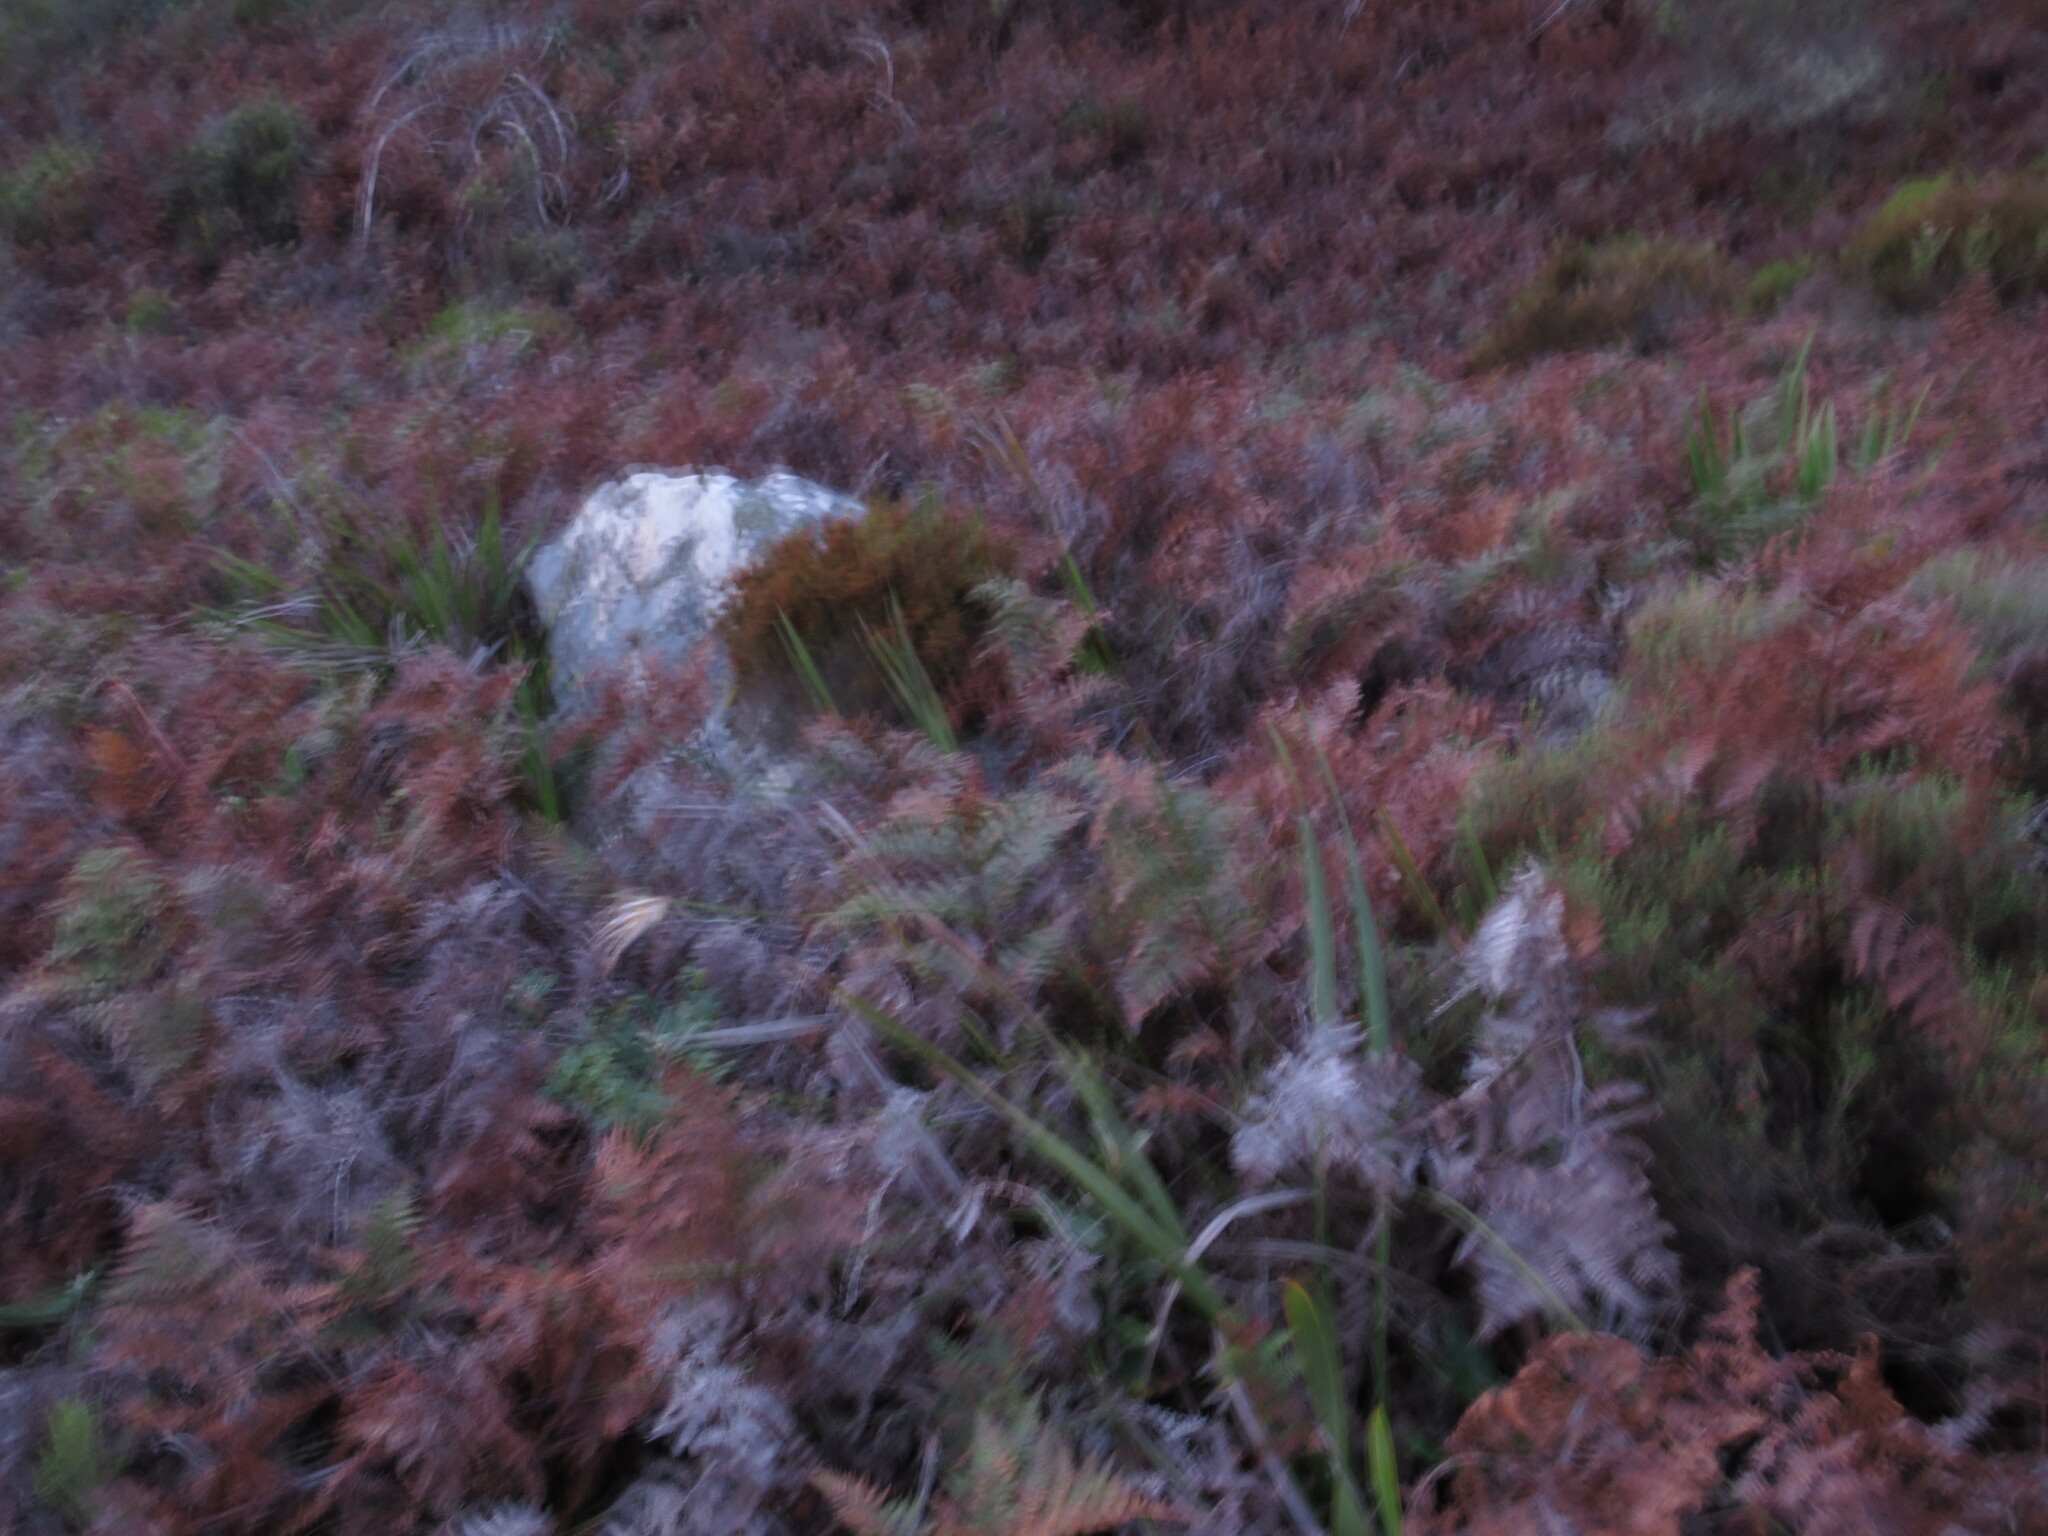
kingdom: Plantae
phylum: Tracheophyta
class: Polypodiopsida
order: Polypodiales
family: Dennstaedtiaceae
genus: Pteridium
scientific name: Pteridium aquilinum
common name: Bracken
